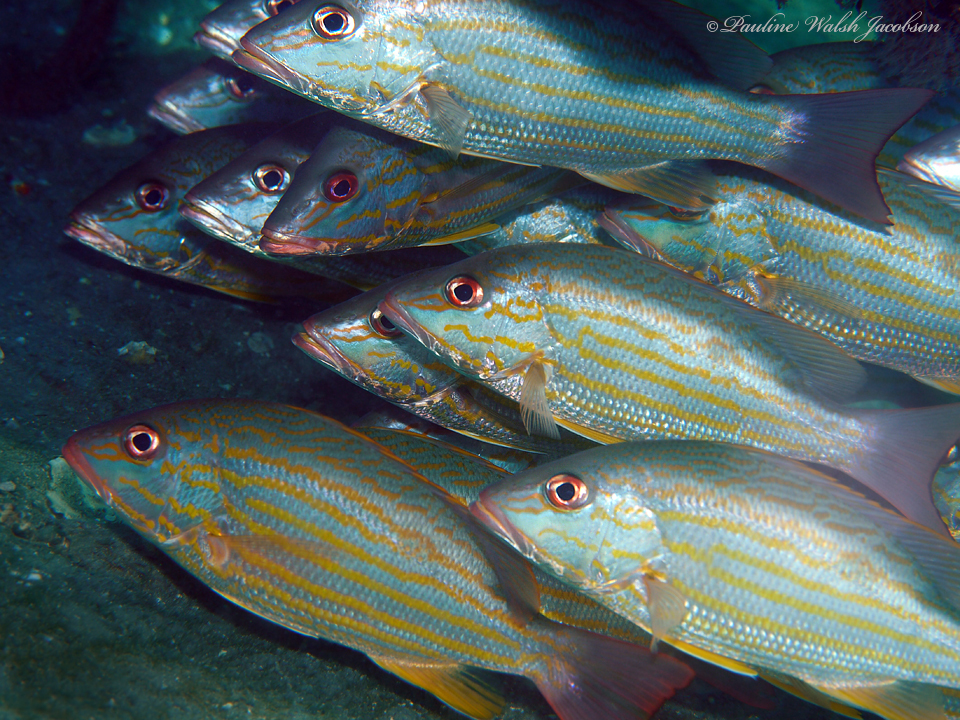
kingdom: Animalia
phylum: Chordata
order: Perciformes
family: Lutjanidae
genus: Lutjanus
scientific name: Lutjanus synagris
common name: Lane snapper
